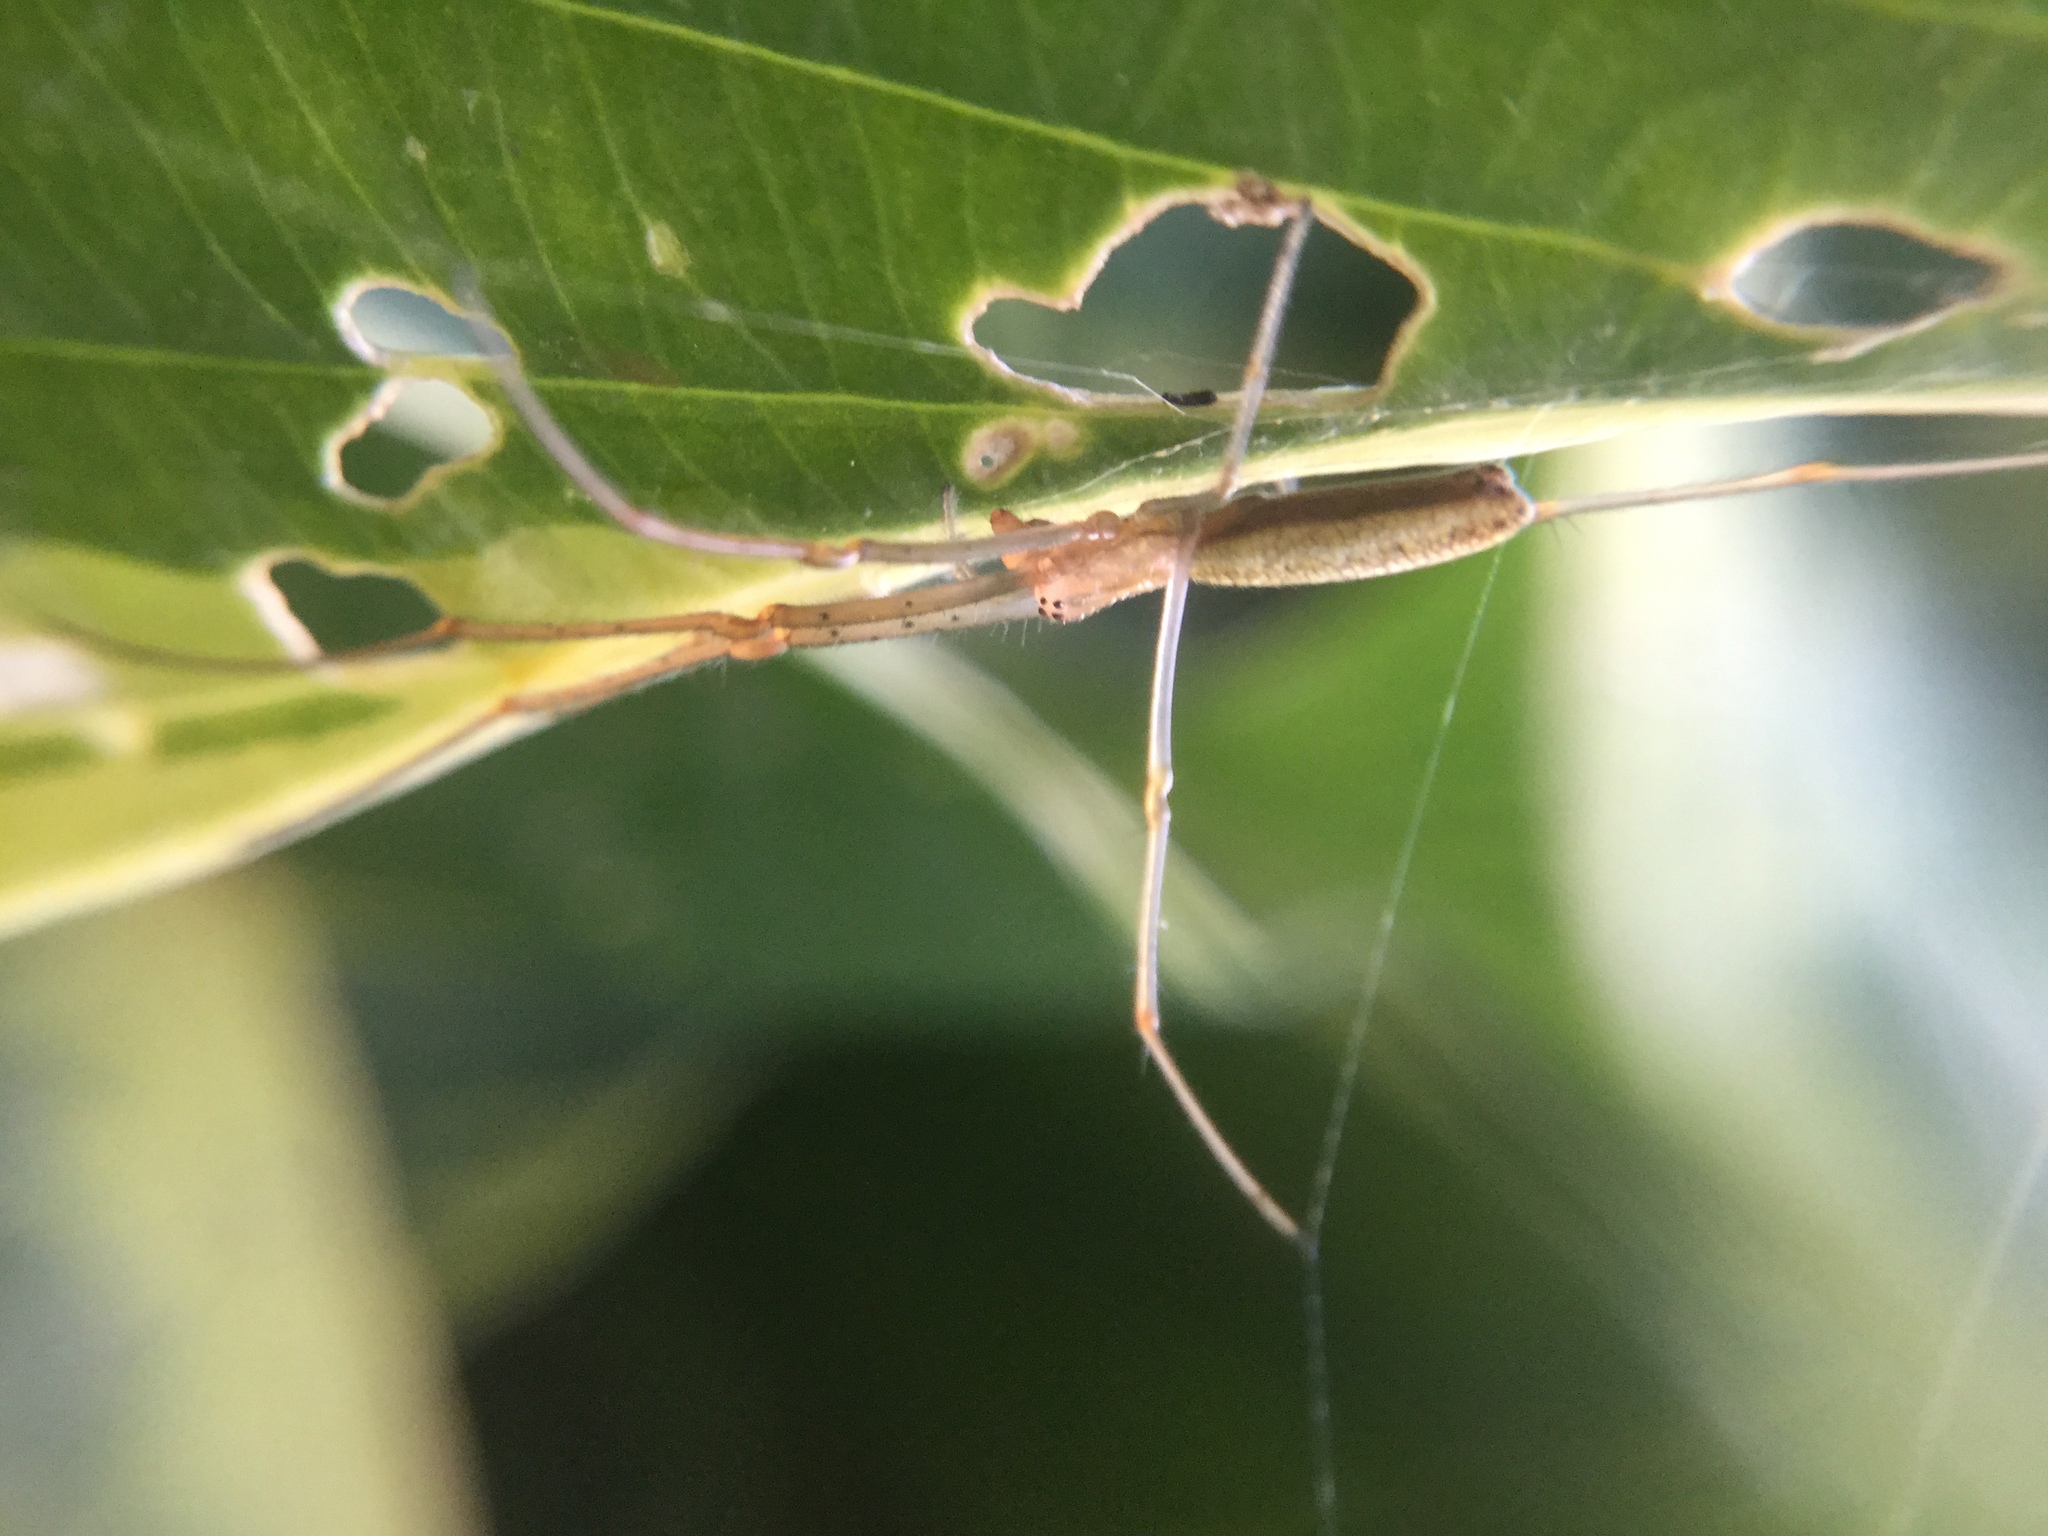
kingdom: Animalia
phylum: Arthropoda
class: Arachnida
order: Araneae
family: Tetragnathidae
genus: Tetragnatha
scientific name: Tetragnatha laboriosa
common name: Longjawed orb weavers
